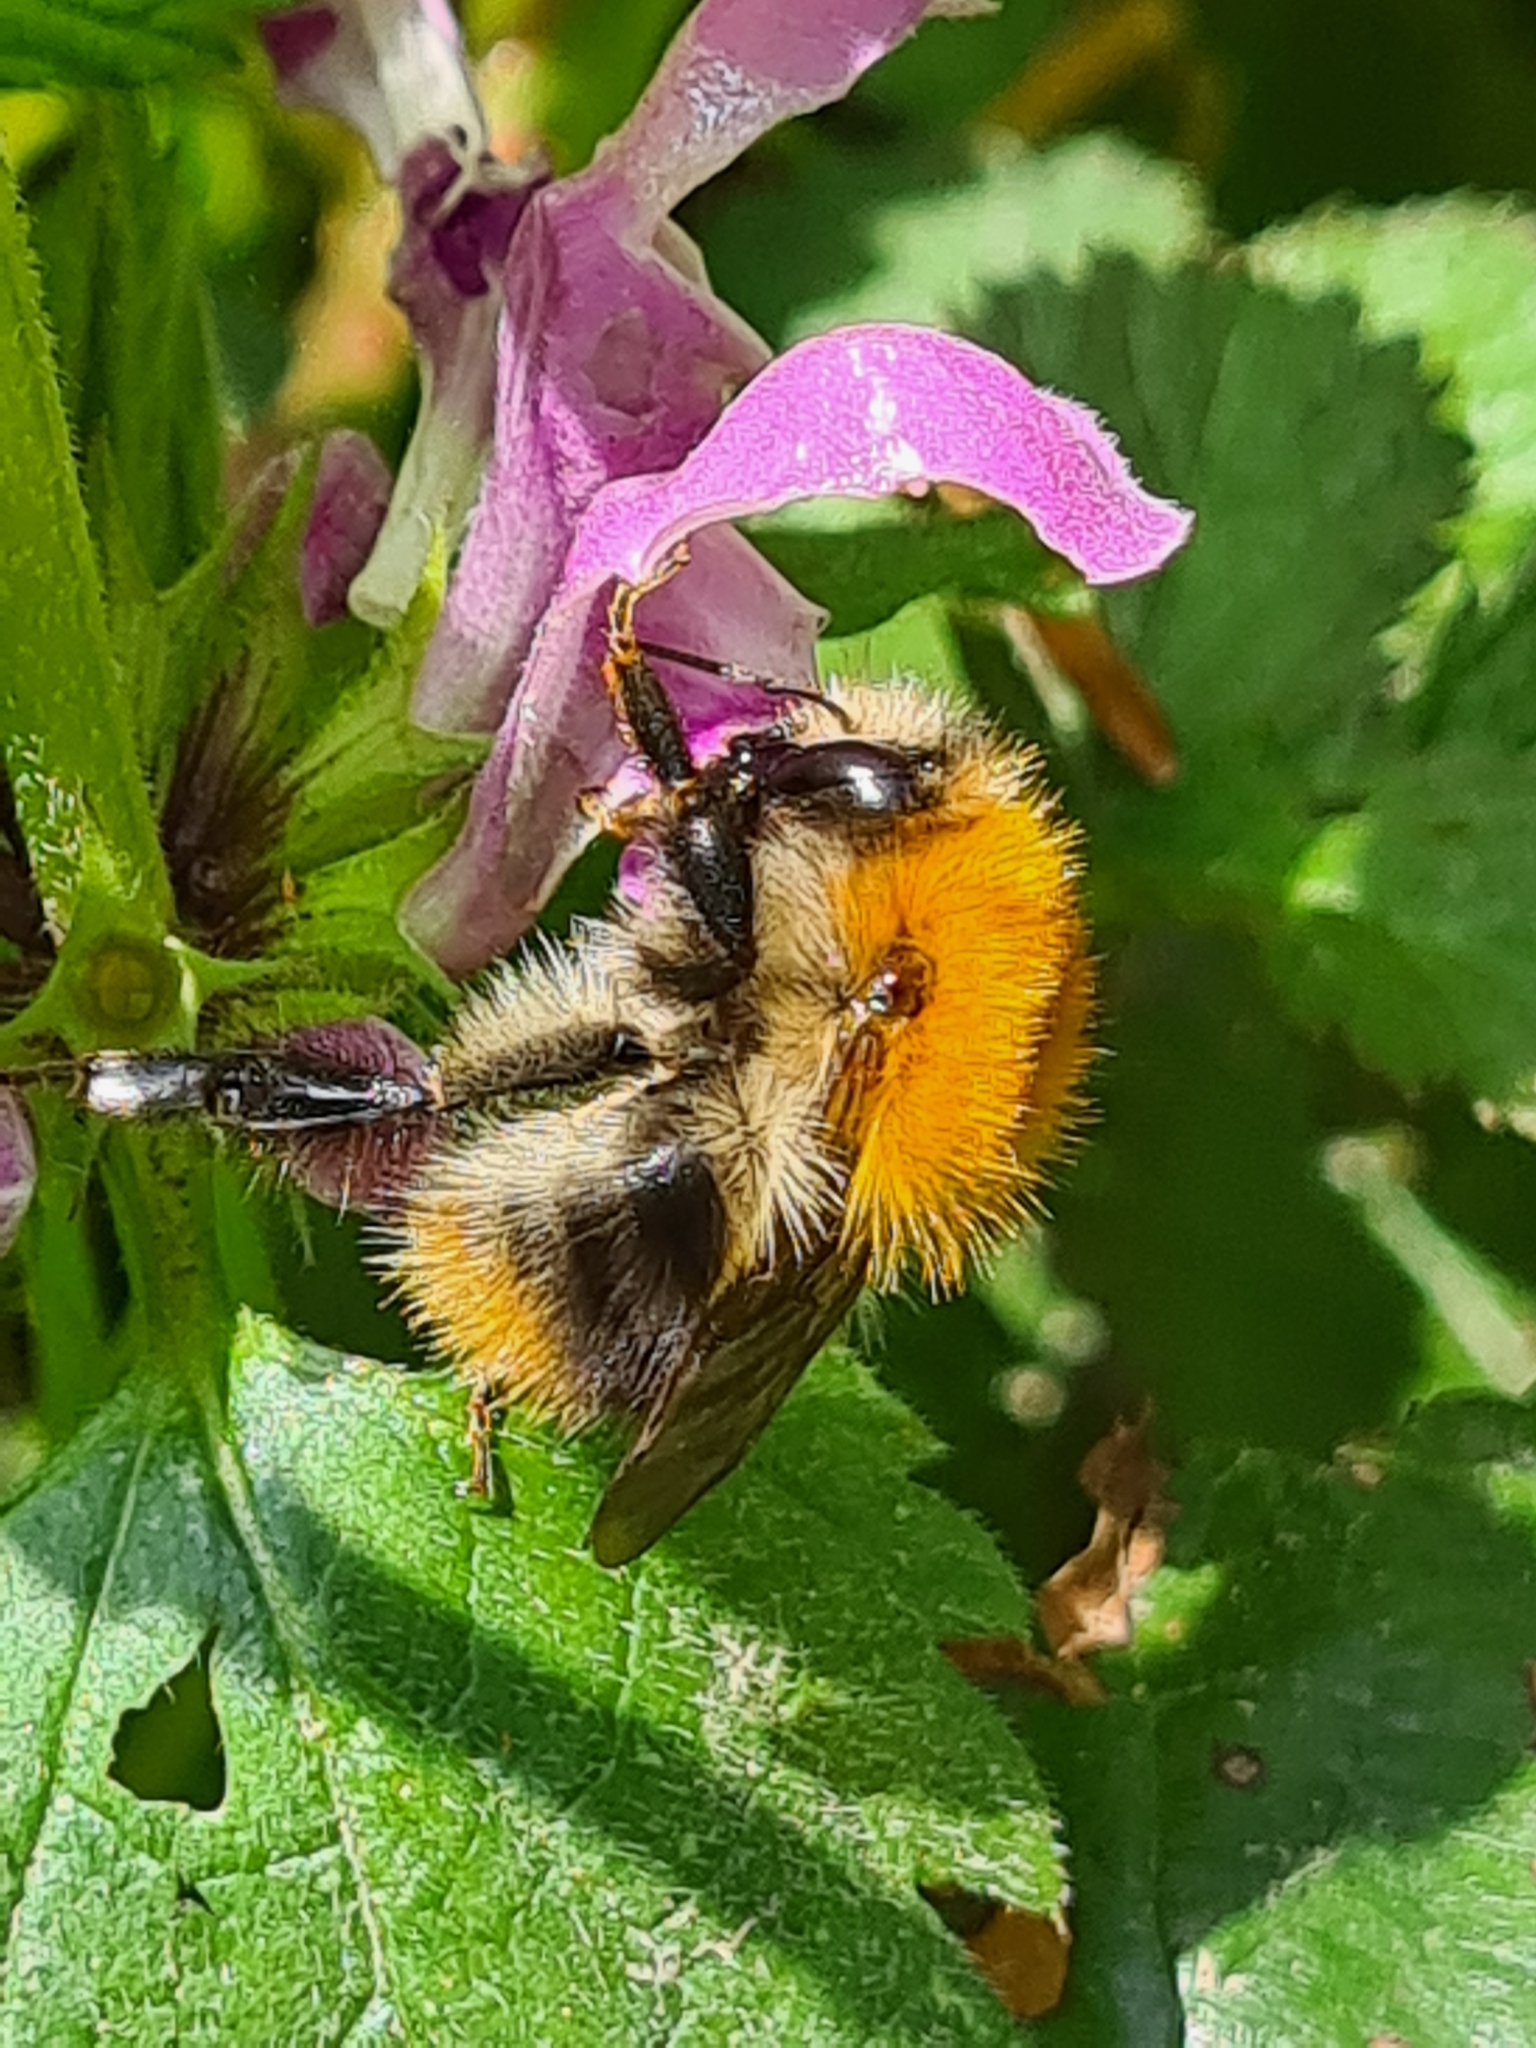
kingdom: Animalia
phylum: Arthropoda
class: Insecta
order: Hymenoptera
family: Apidae
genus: Bombus
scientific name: Bombus pascuorum
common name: Common carder bee
